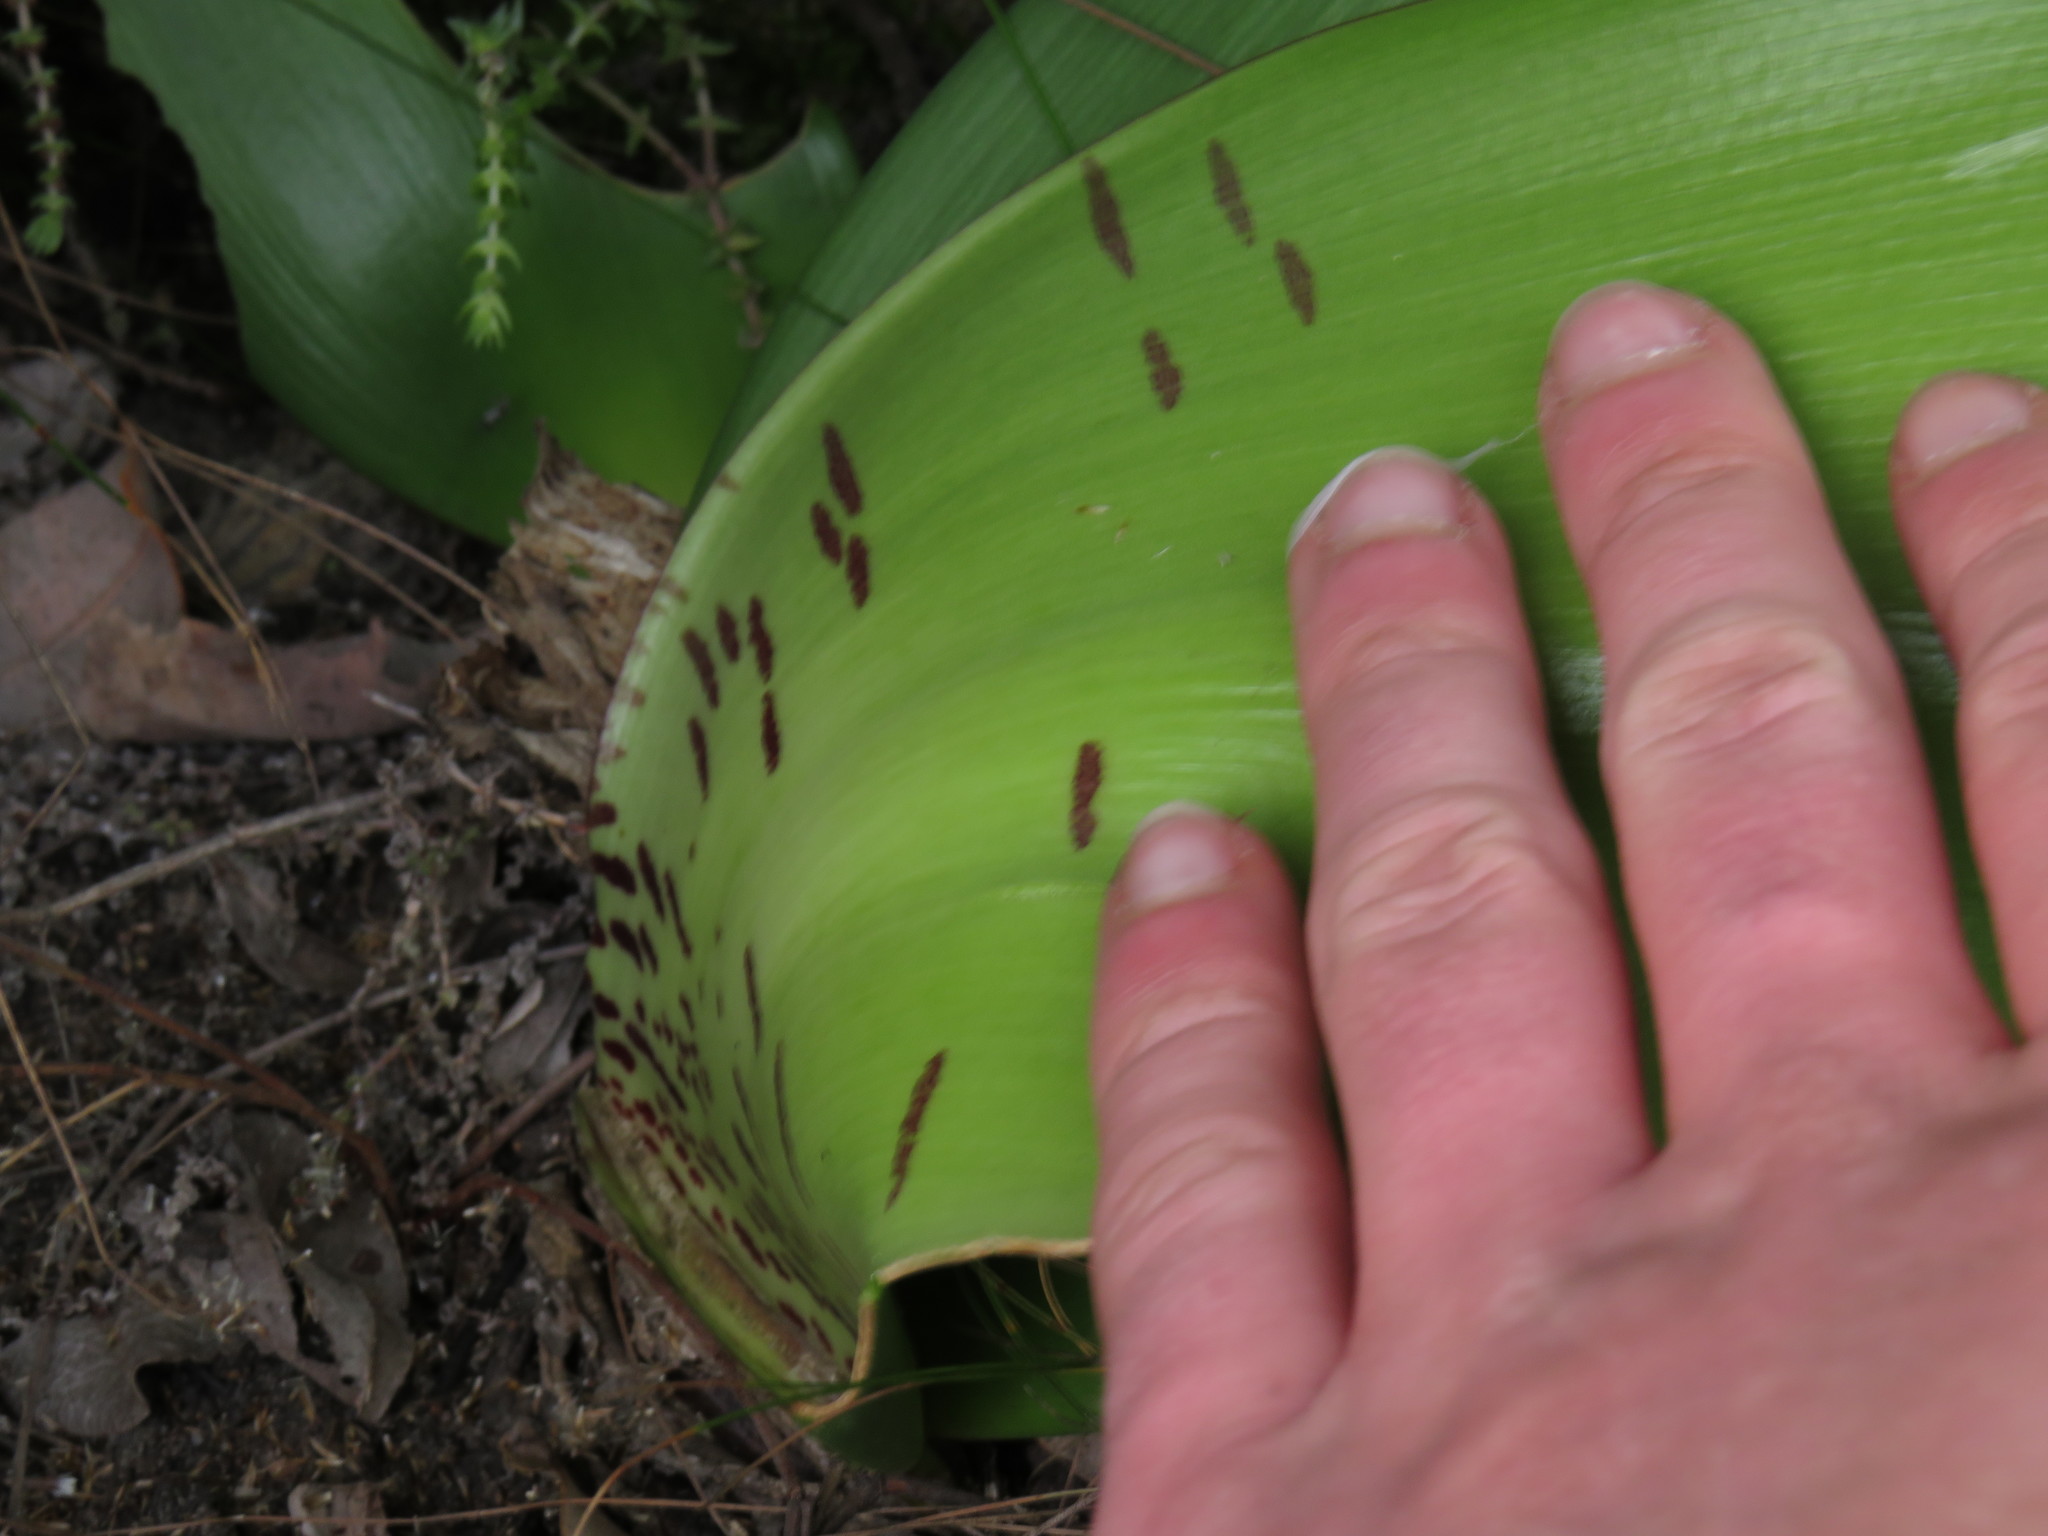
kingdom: Plantae
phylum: Tracheophyta
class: Liliopsida
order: Asparagales
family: Amaryllidaceae
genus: Haemanthus
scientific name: Haemanthus coccineus
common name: Cape-tulip
